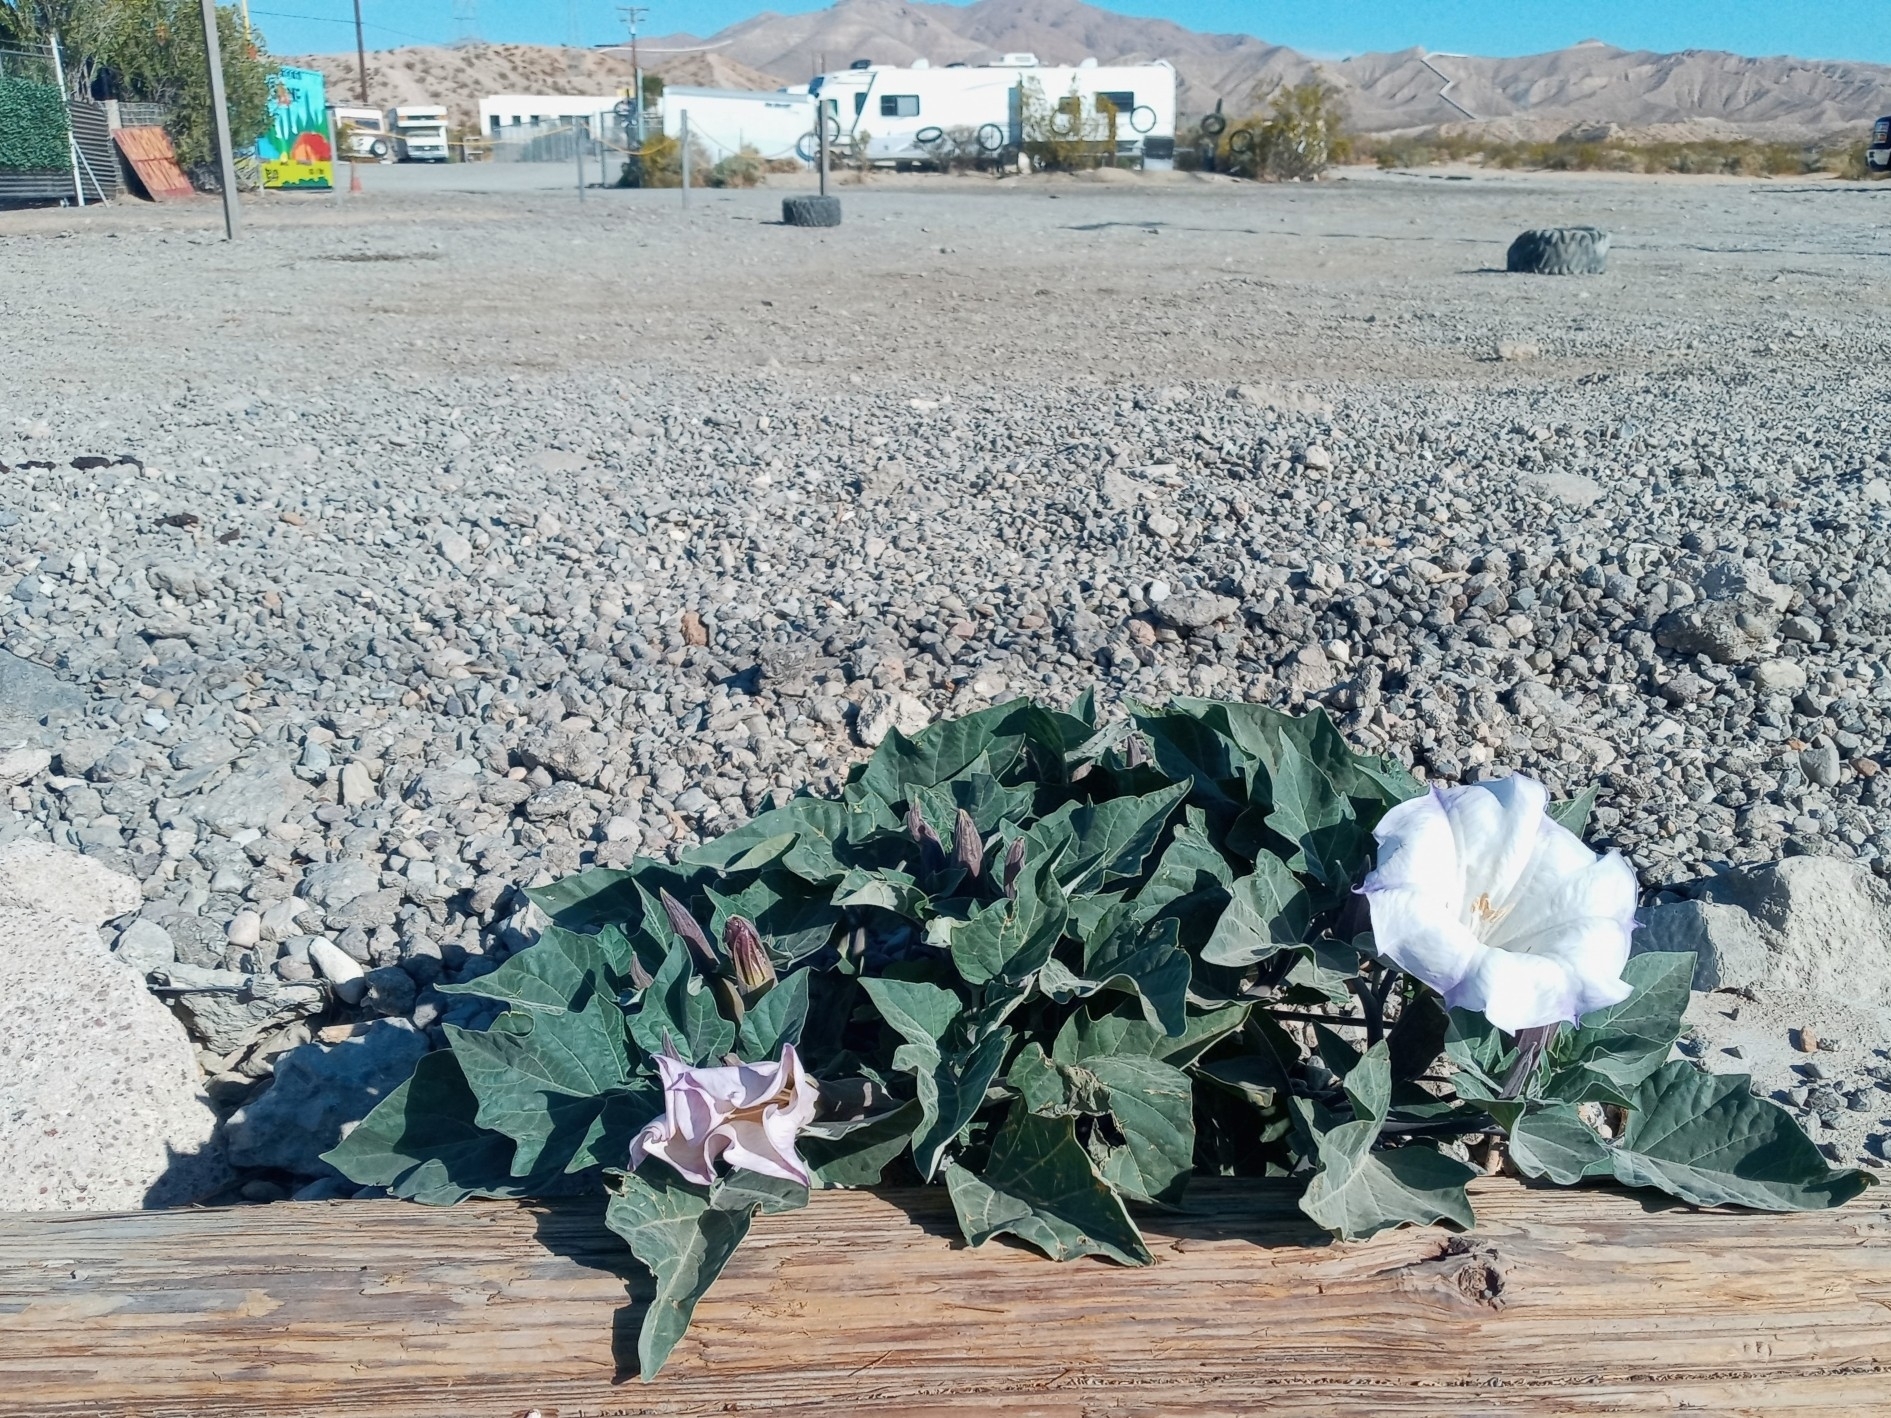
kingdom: Plantae
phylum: Tracheophyta
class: Magnoliopsida
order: Solanales
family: Solanaceae
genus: Datura
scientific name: Datura wrightii
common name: Sacred thorn-apple
